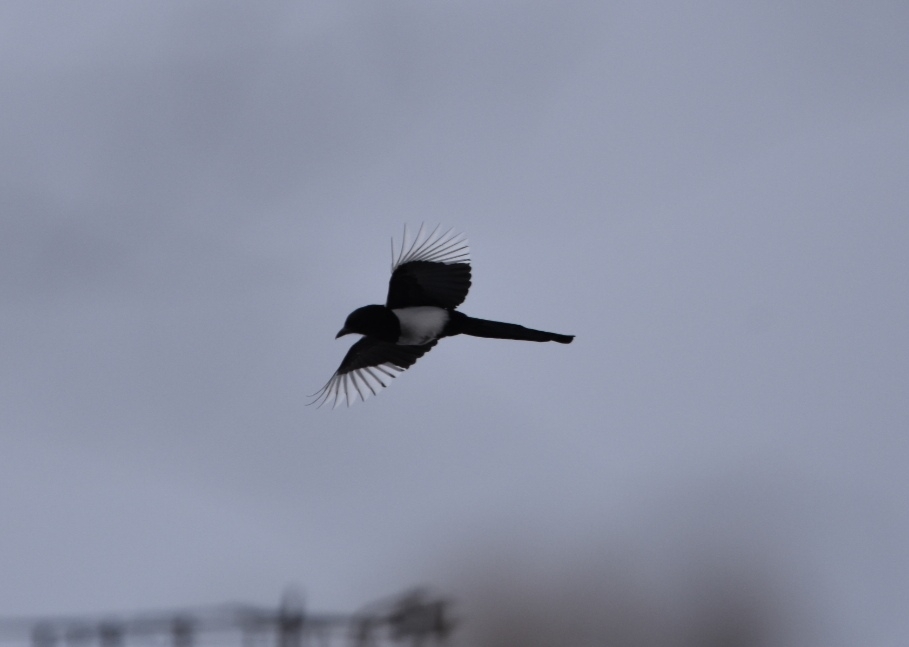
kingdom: Animalia
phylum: Chordata
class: Aves
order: Passeriformes
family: Corvidae
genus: Pica
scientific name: Pica pica
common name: Eurasian magpie
